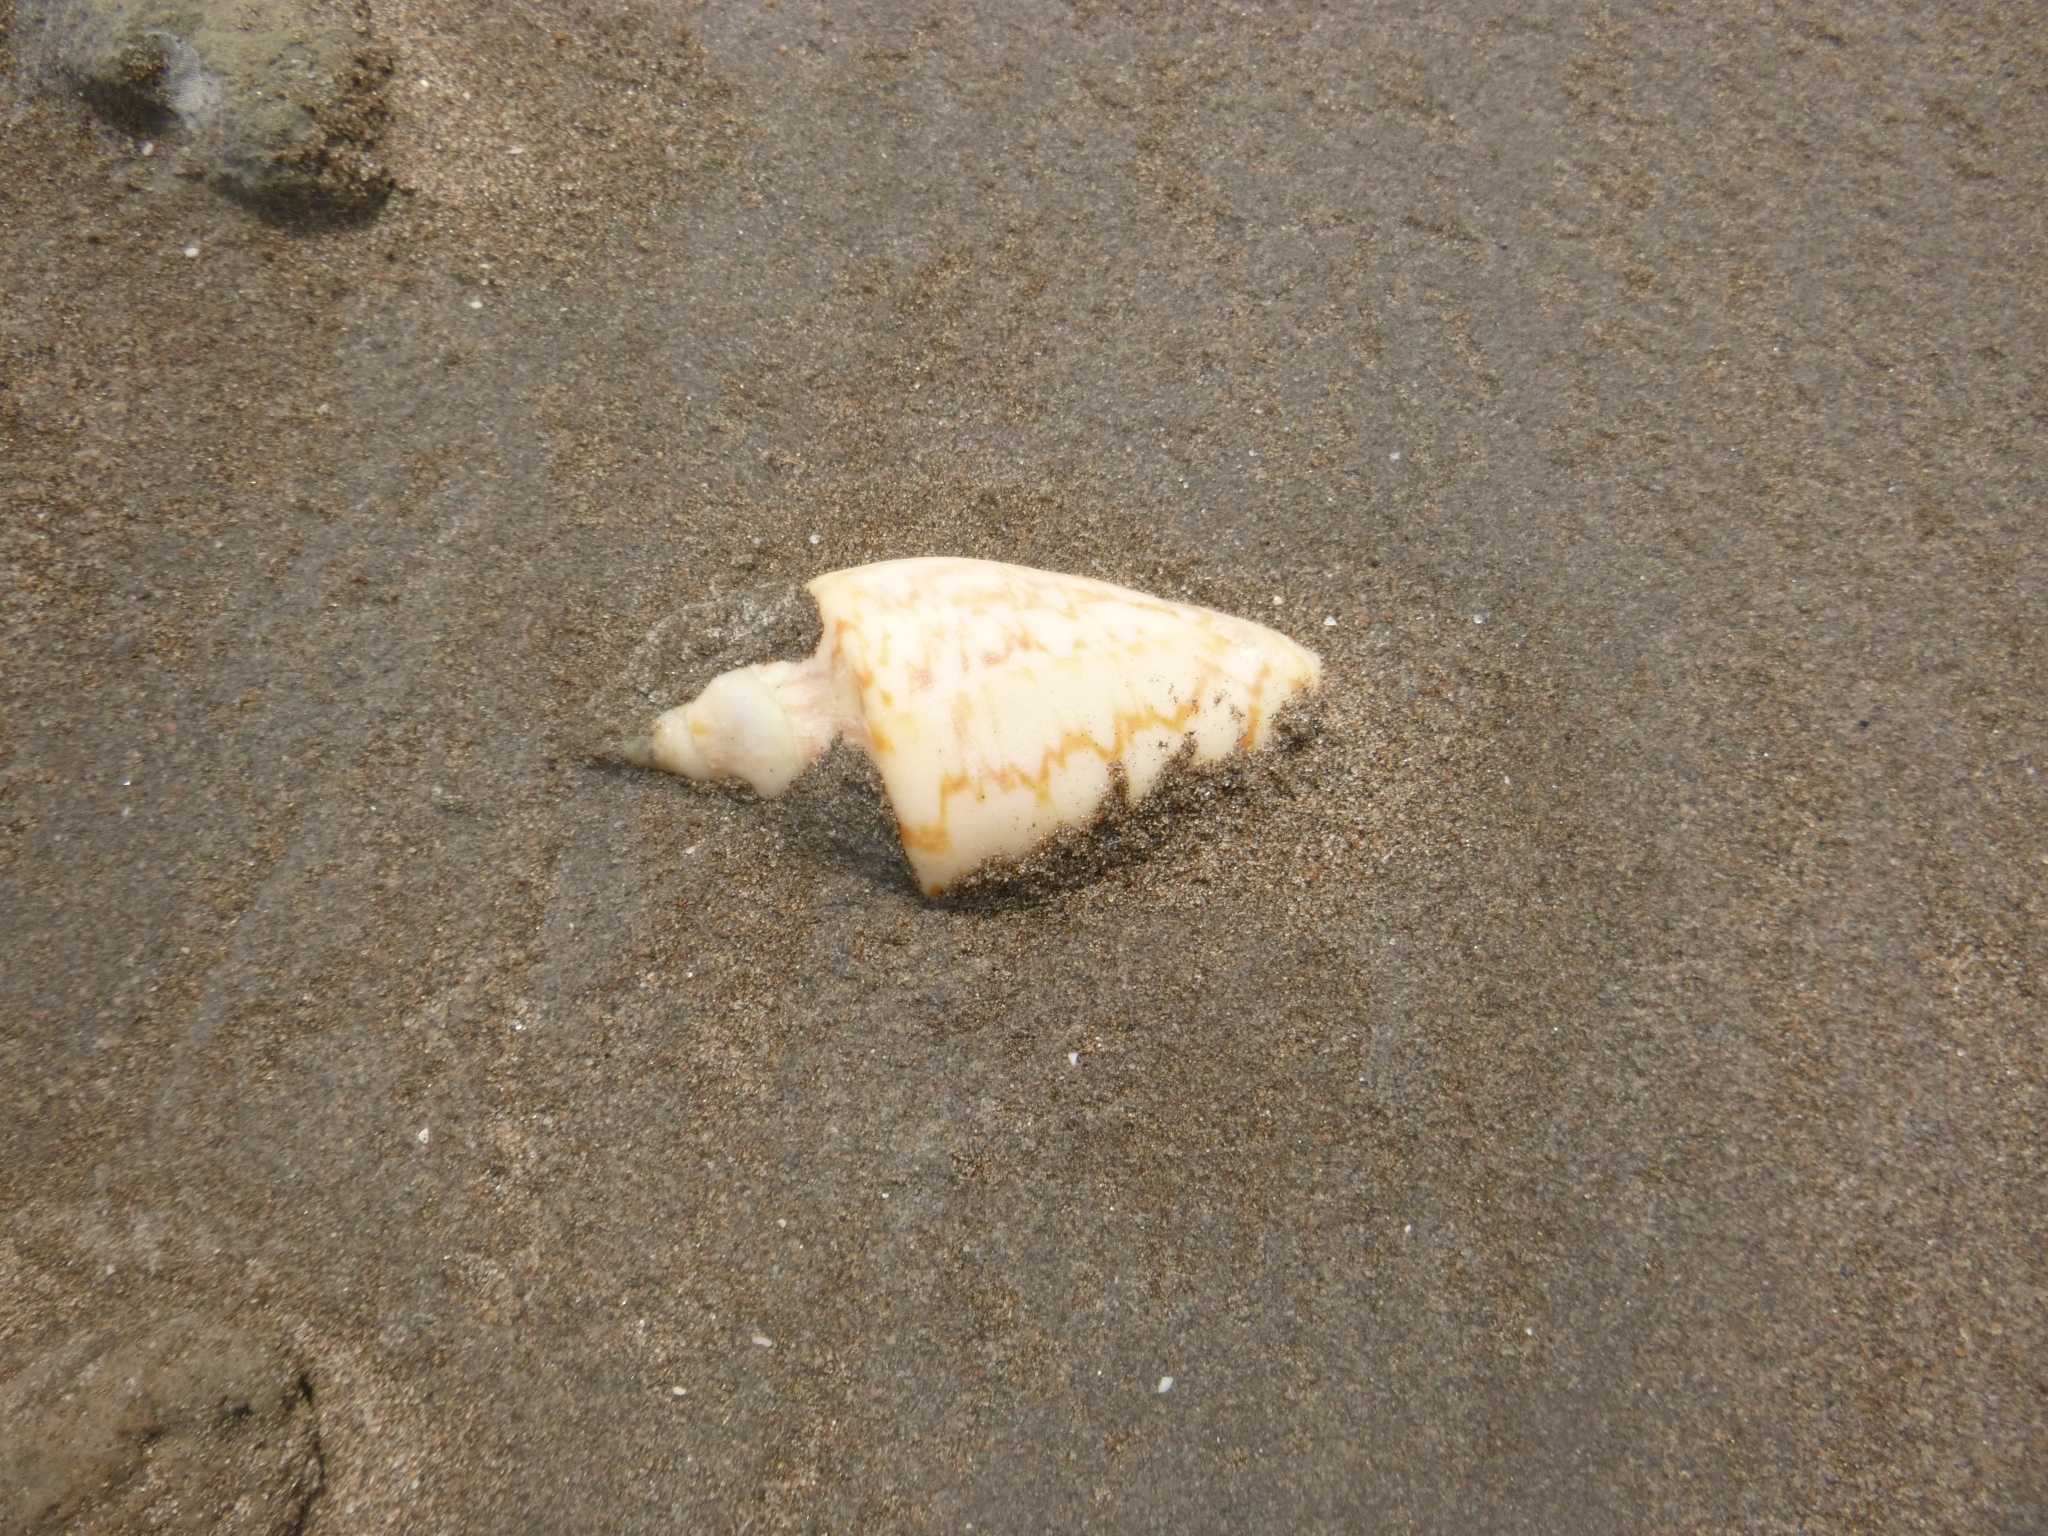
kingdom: Animalia
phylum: Mollusca
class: Gastropoda
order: Neogastropoda
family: Volutidae
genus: Zidona
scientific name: Zidona dufresnii
